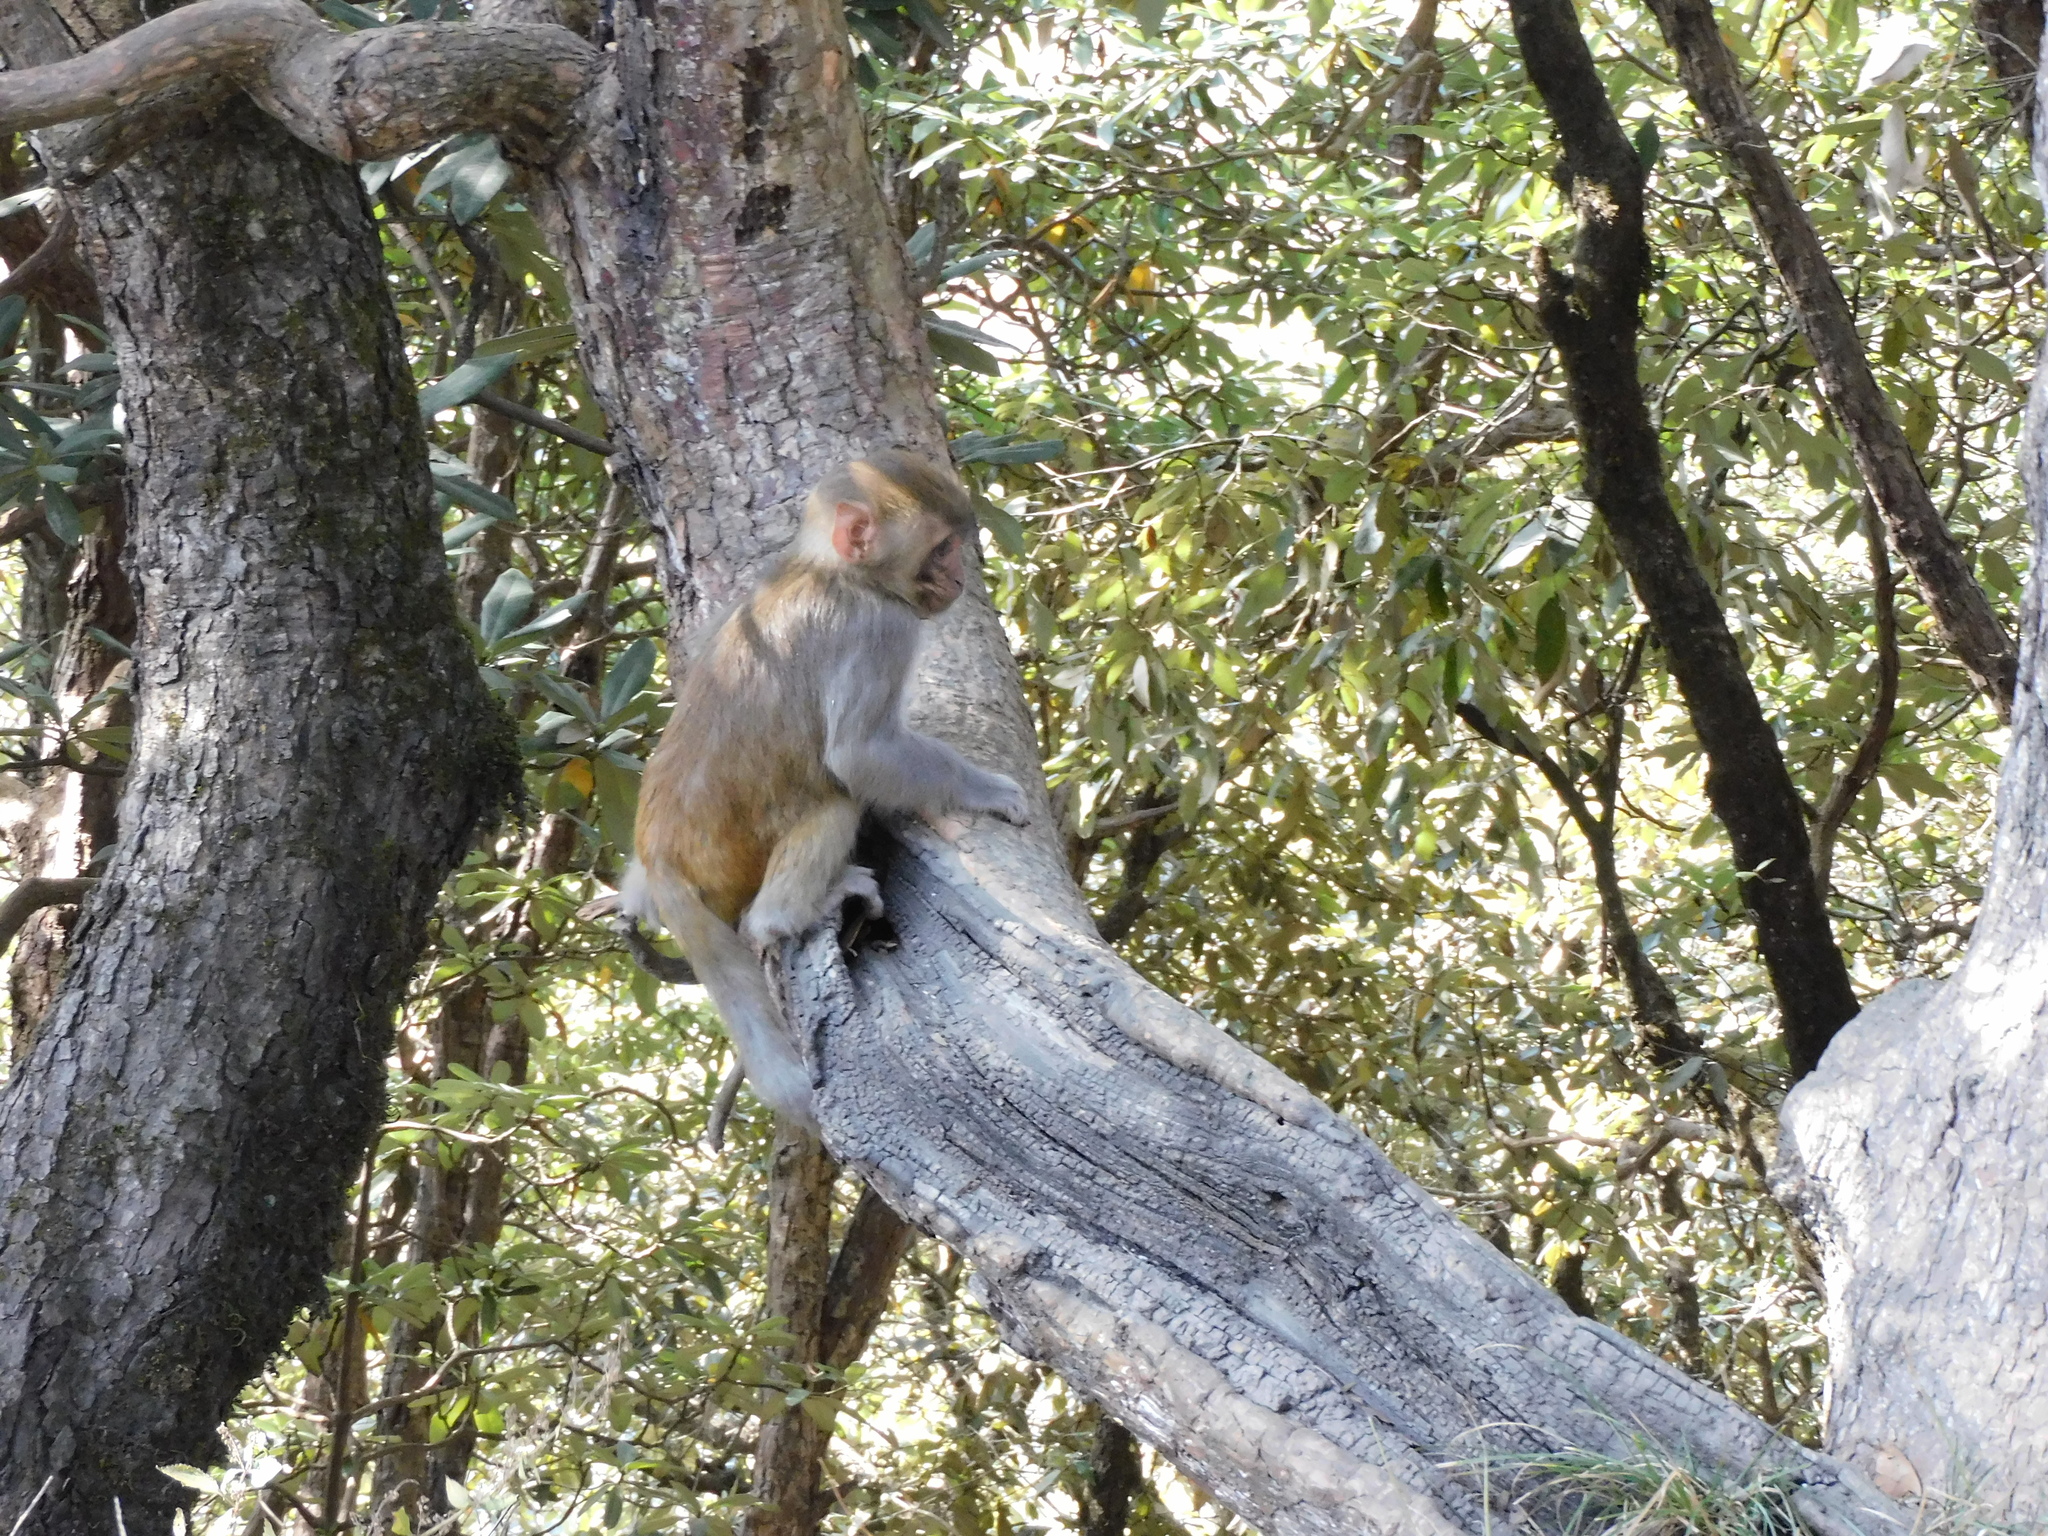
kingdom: Animalia
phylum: Chordata
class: Mammalia
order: Primates
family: Cercopithecidae
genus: Macaca
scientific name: Macaca mulatta
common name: Rhesus monkey
